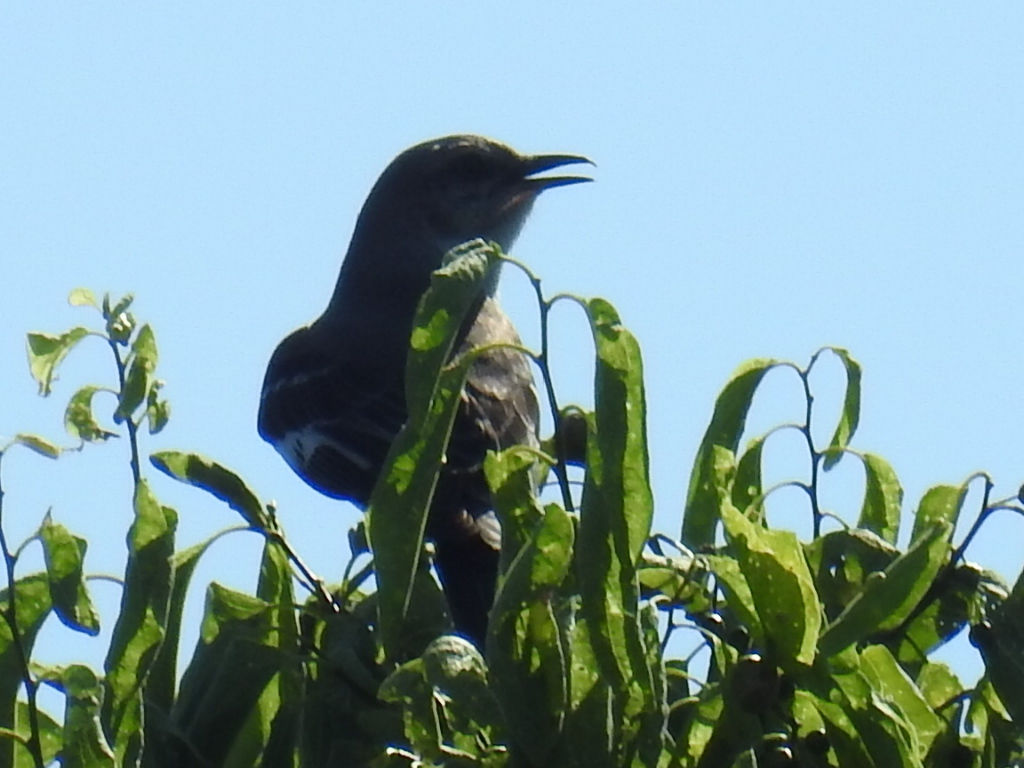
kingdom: Animalia
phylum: Chordata
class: Aves
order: Passeriformes
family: Mimidae
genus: Mimus
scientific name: Mimus polyglottos
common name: Northern mockingbird
